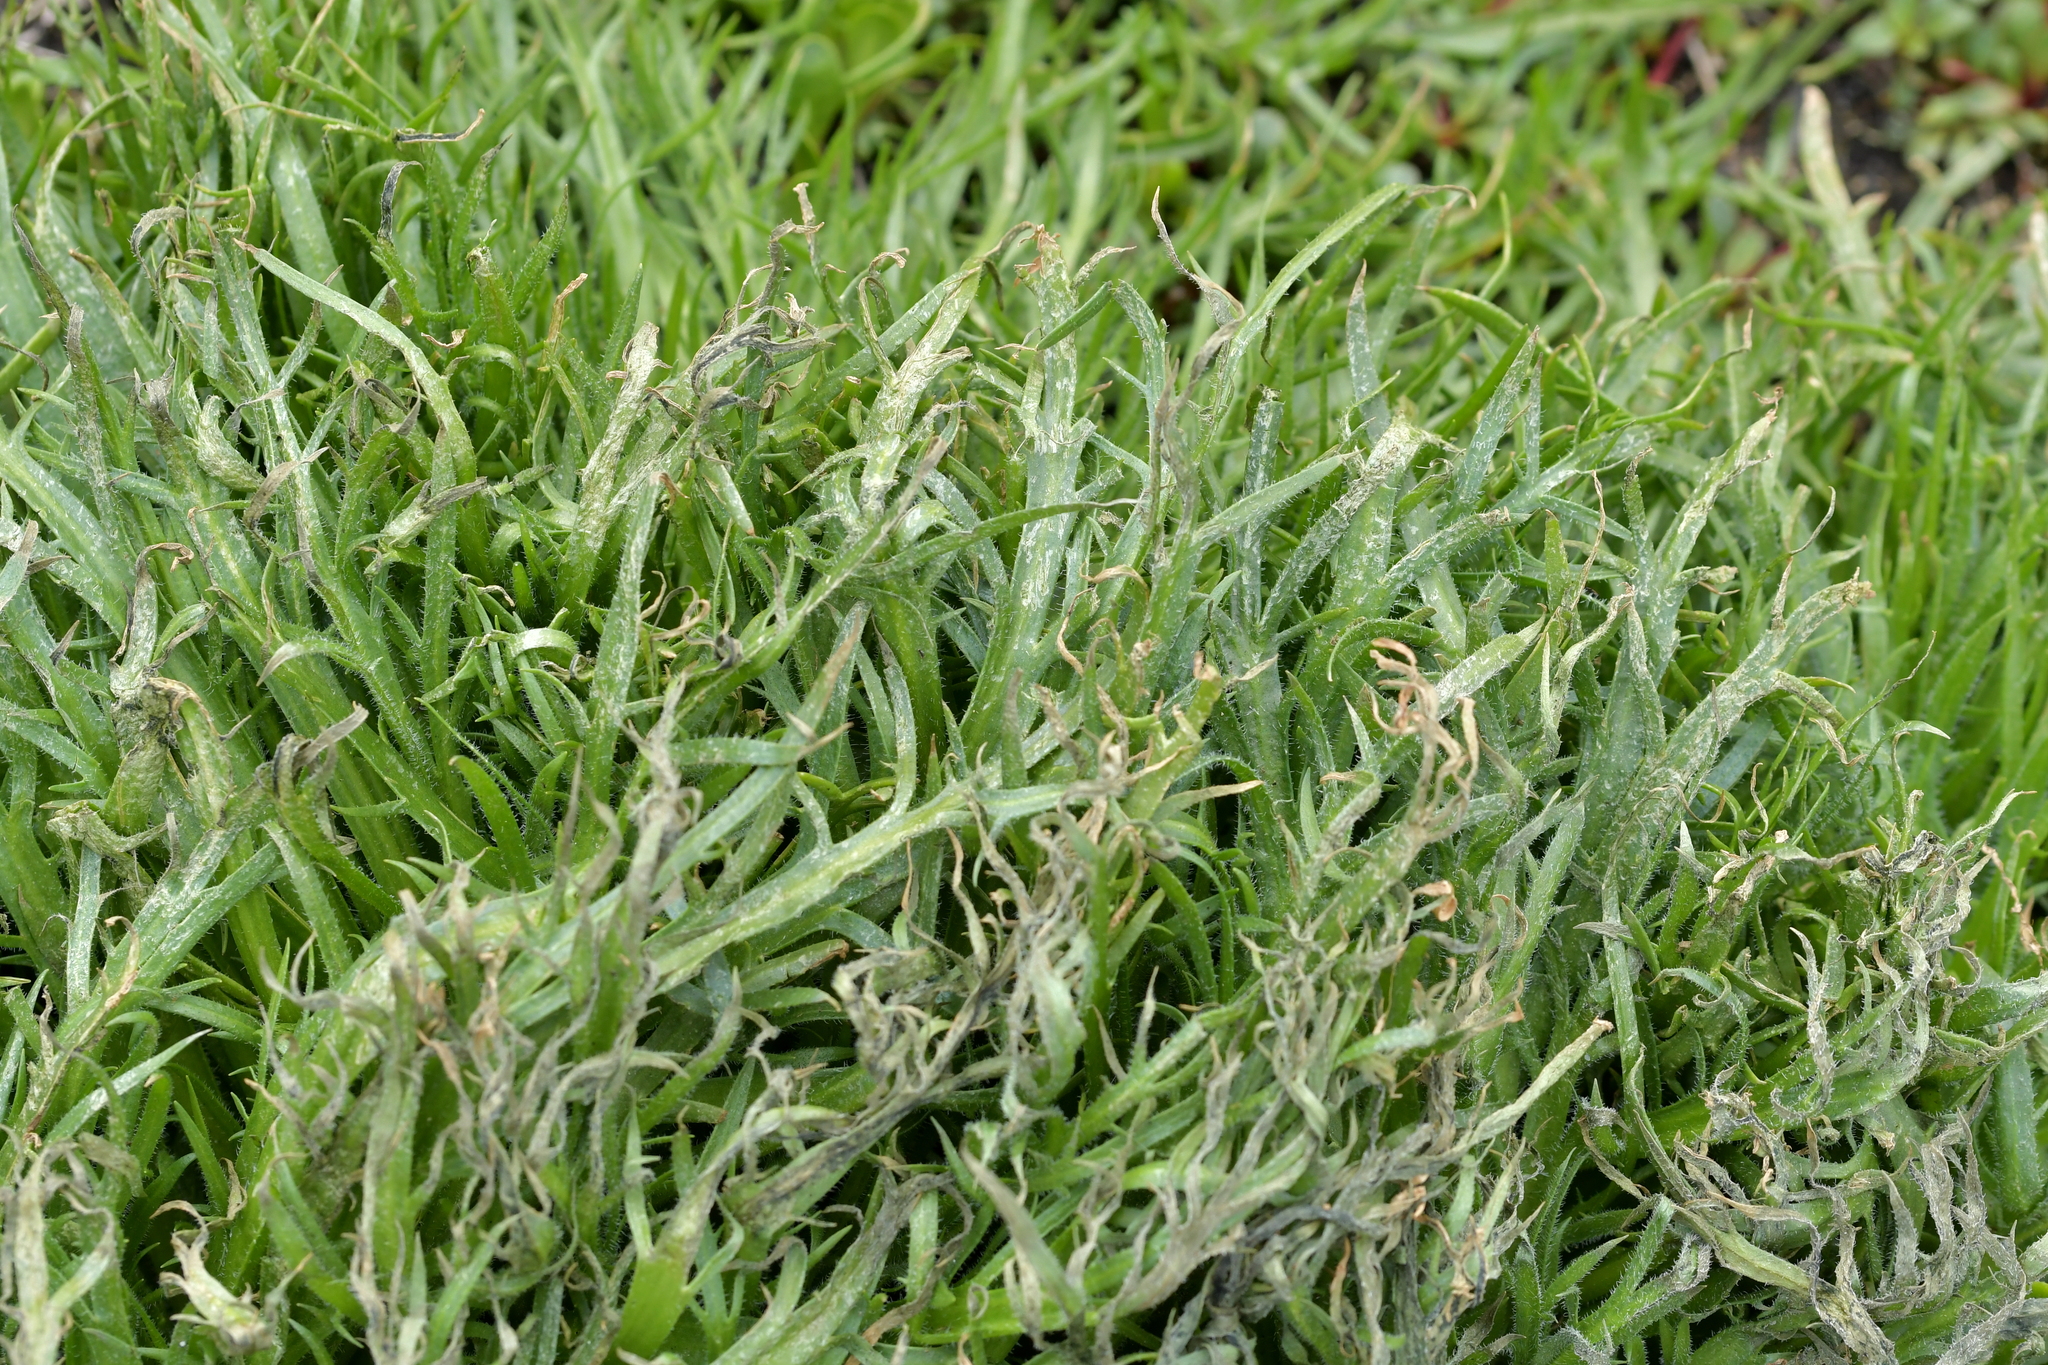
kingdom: Plantae
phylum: Tracheophyta
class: Magnoliopsida
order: Lamiales
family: Plantaginaceae
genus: Plantago
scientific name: Plantago coronopus
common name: Buck's-horn plantain
